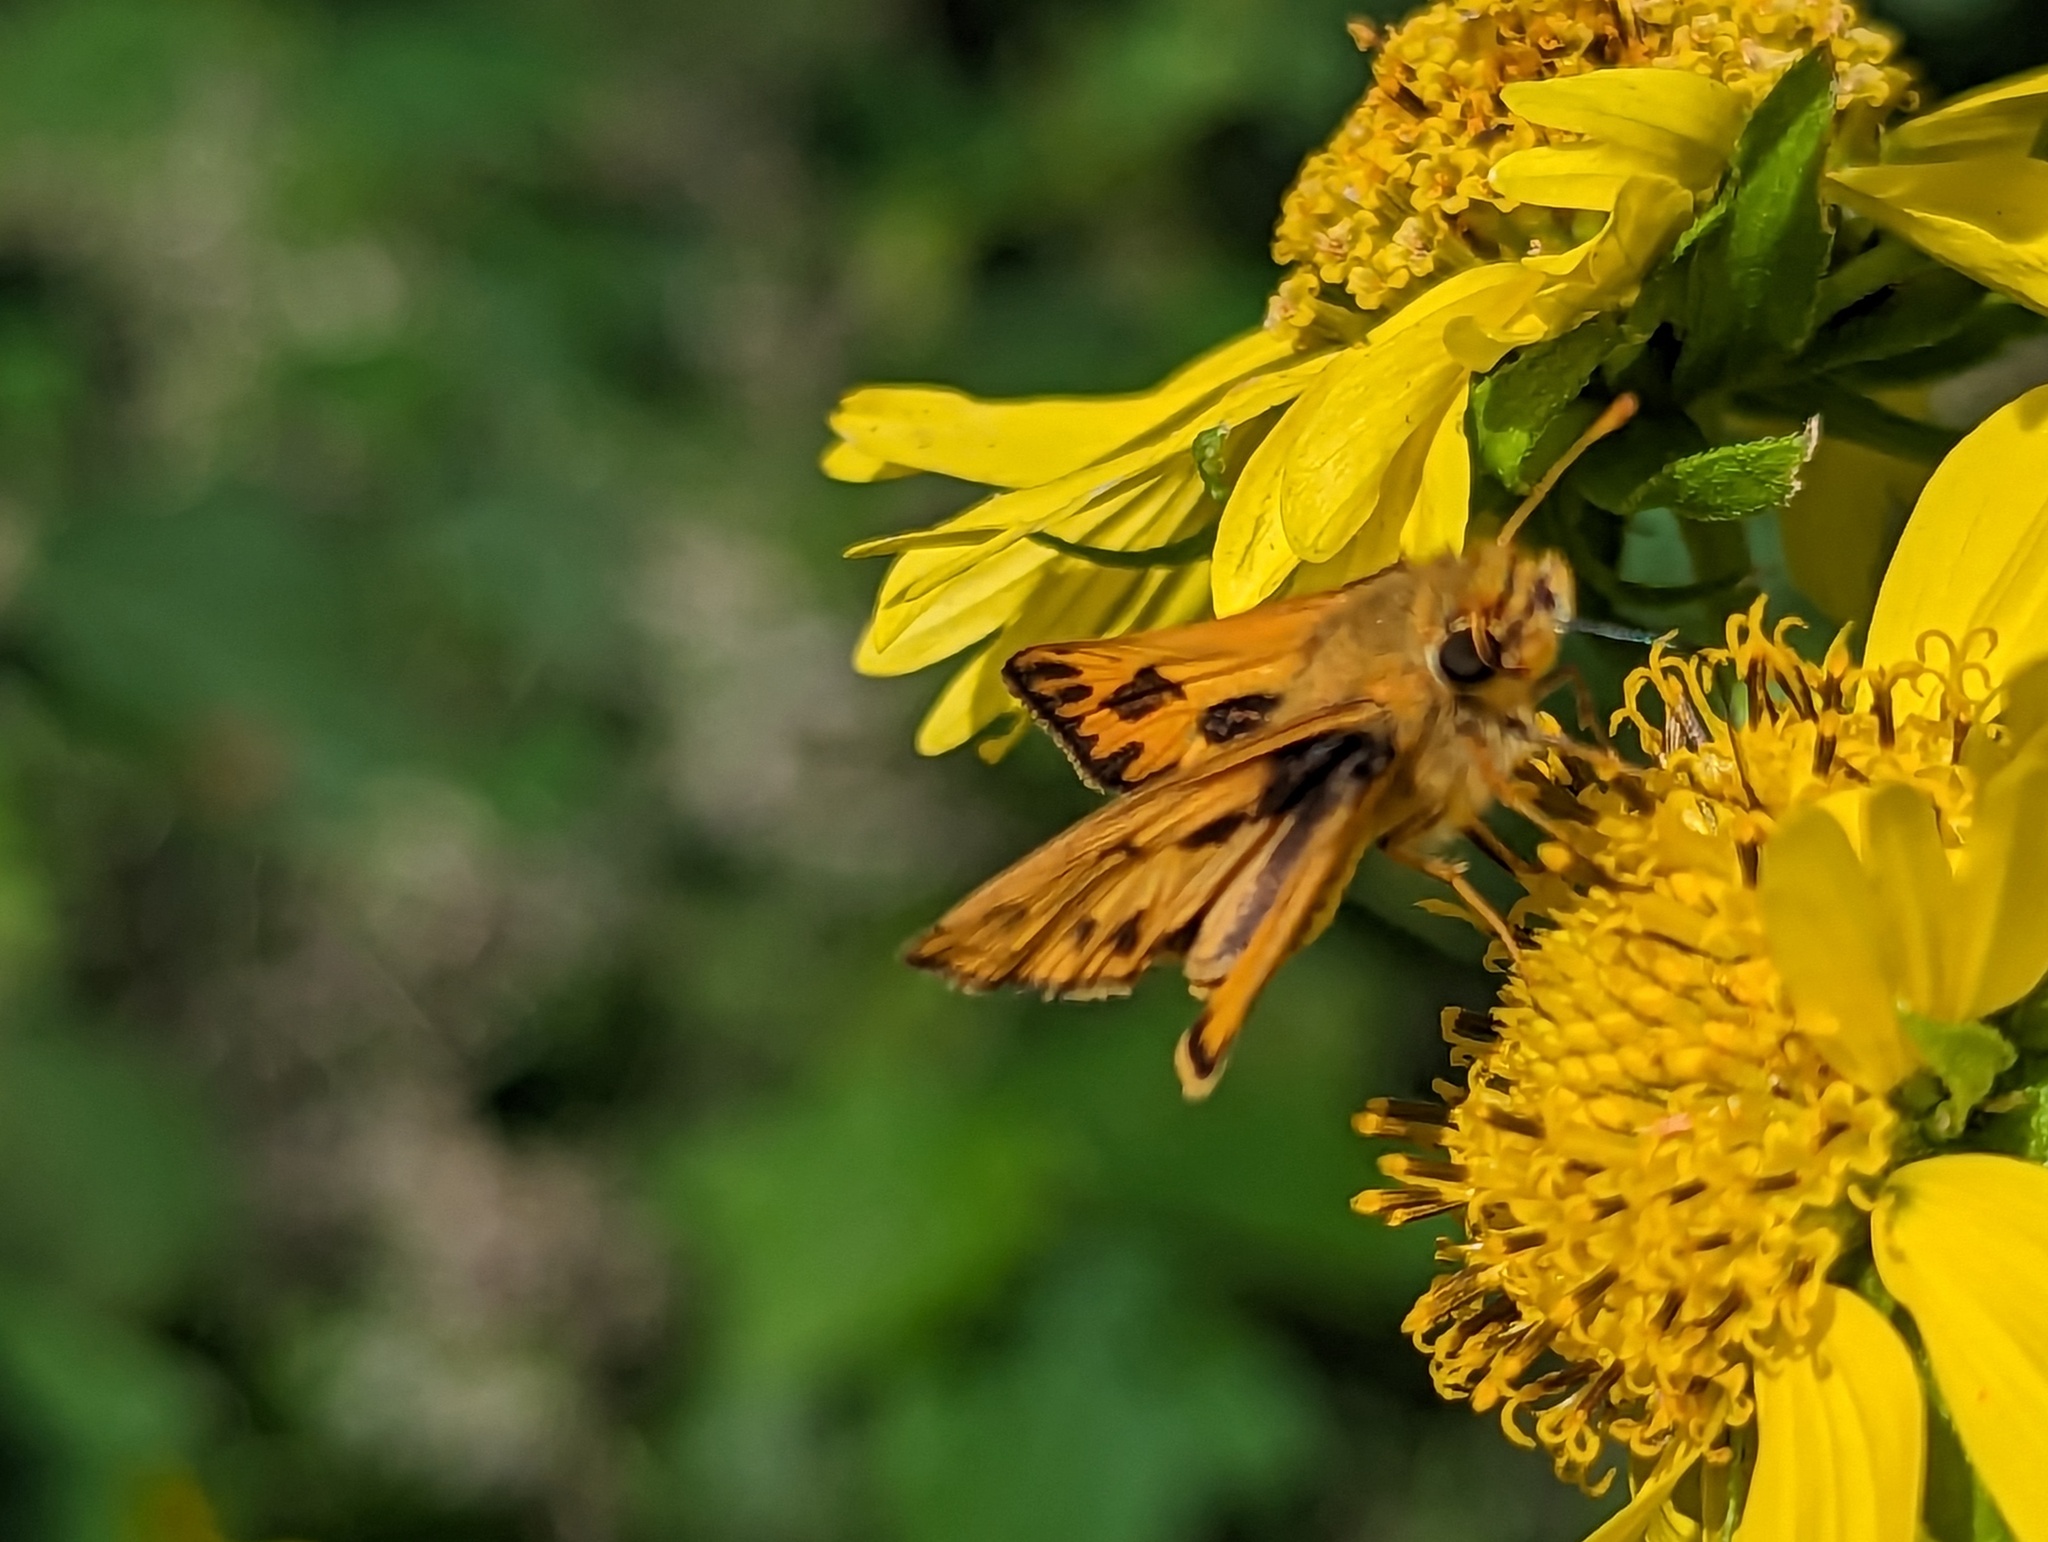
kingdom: Animalia
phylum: Arthropoda
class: Insecta
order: Lepidoptera
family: Hesperiidae
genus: Hylephila
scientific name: Hylephila phyleus
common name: Fiery skipper
